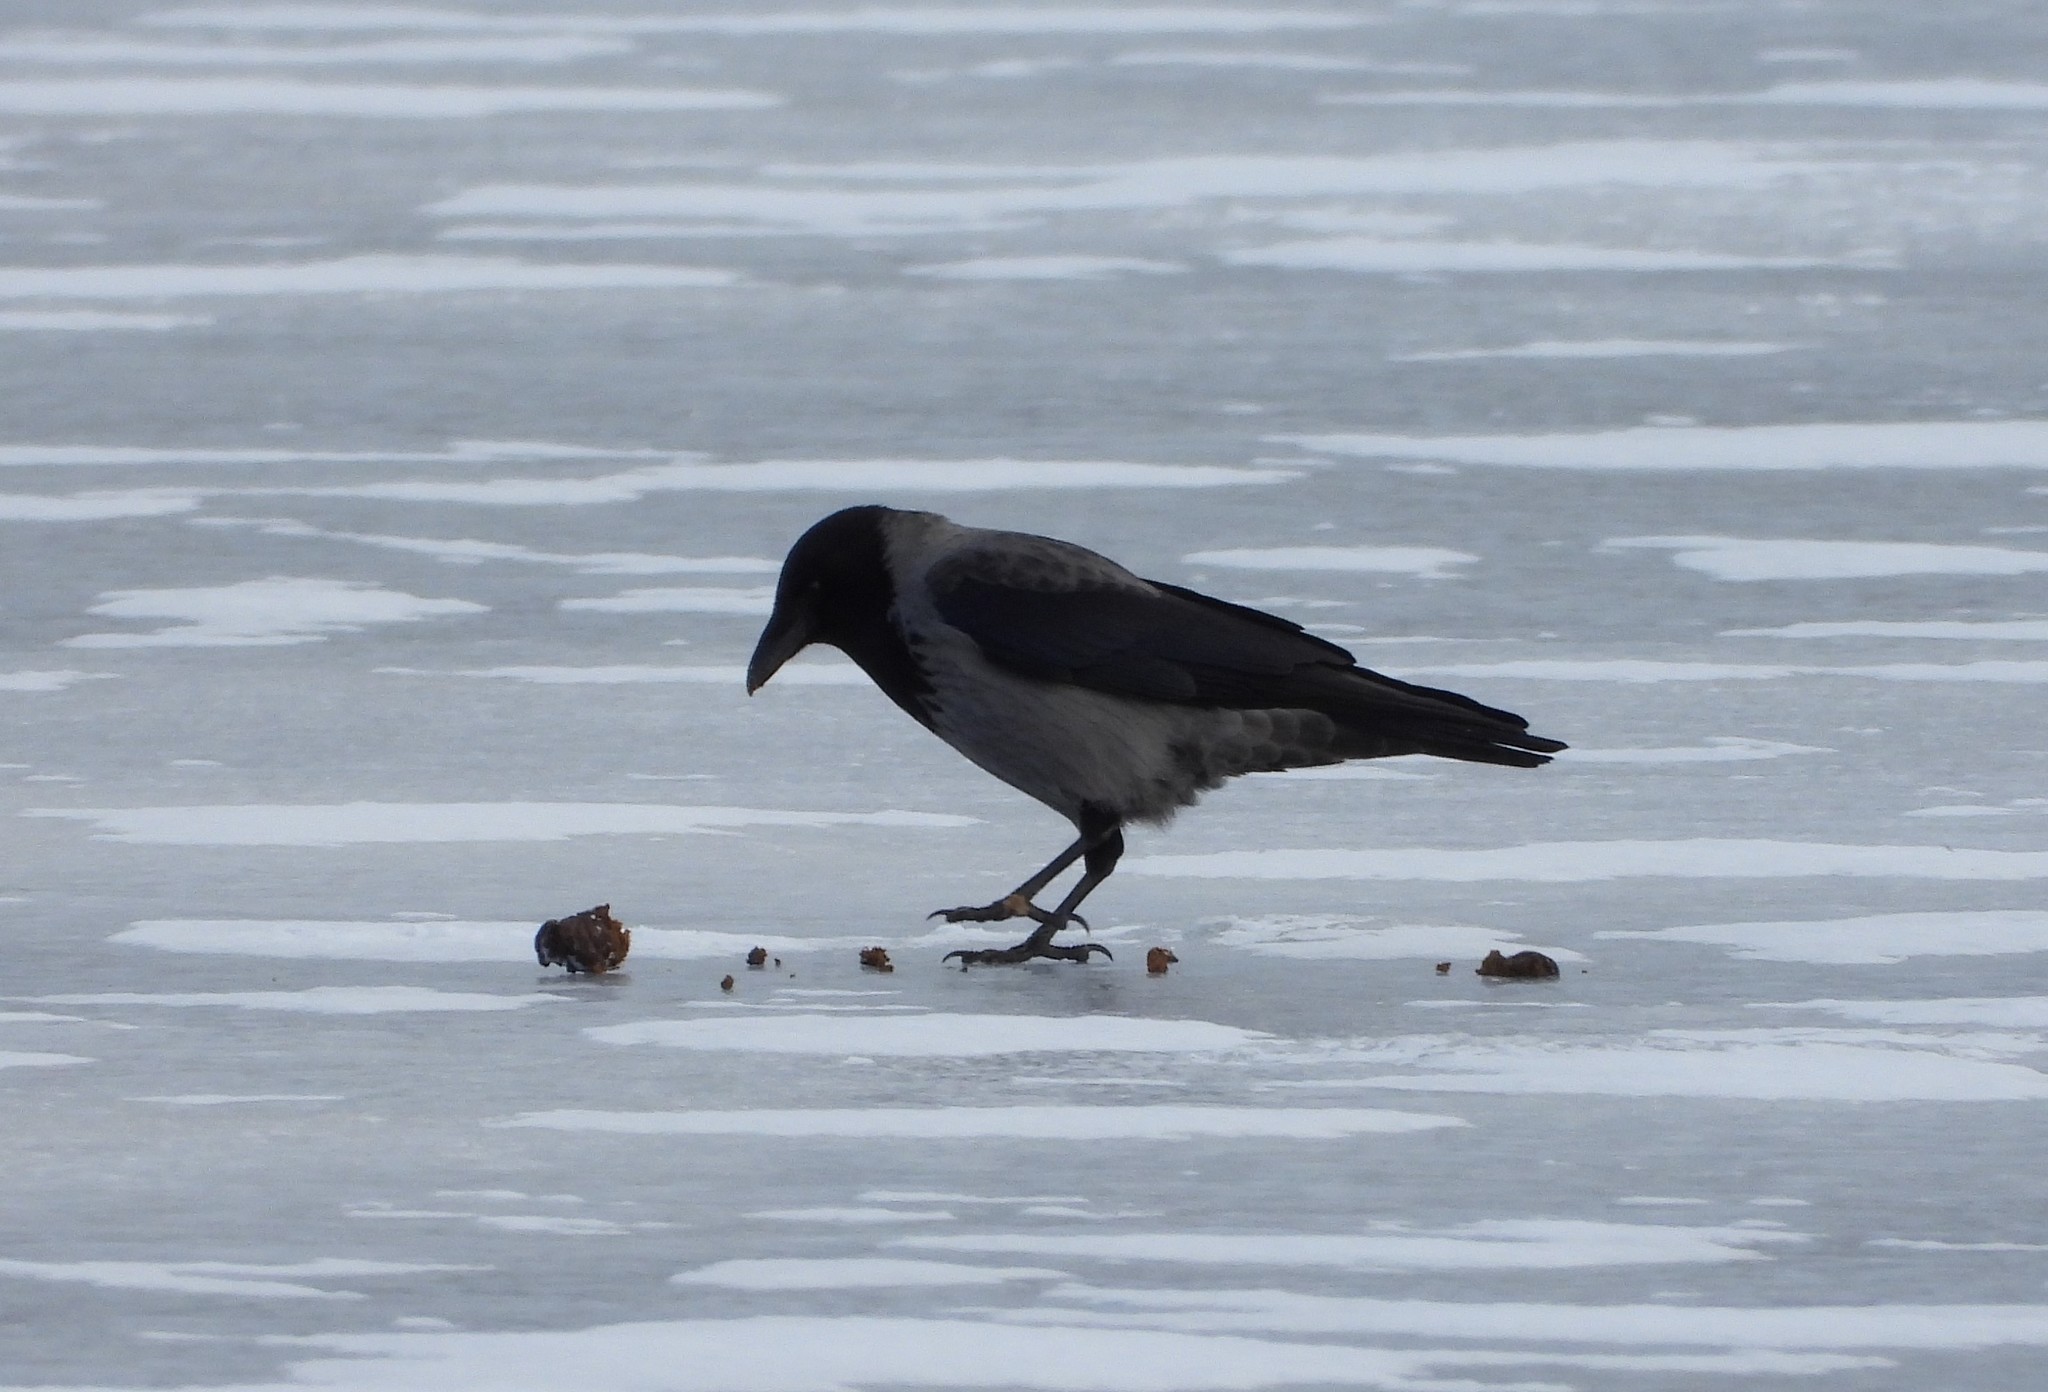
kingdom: Animalia
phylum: Chordata
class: Aves
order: Passeriformes
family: Corvidae
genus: Corvus
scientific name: Corvus cornix
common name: Hooded crow
